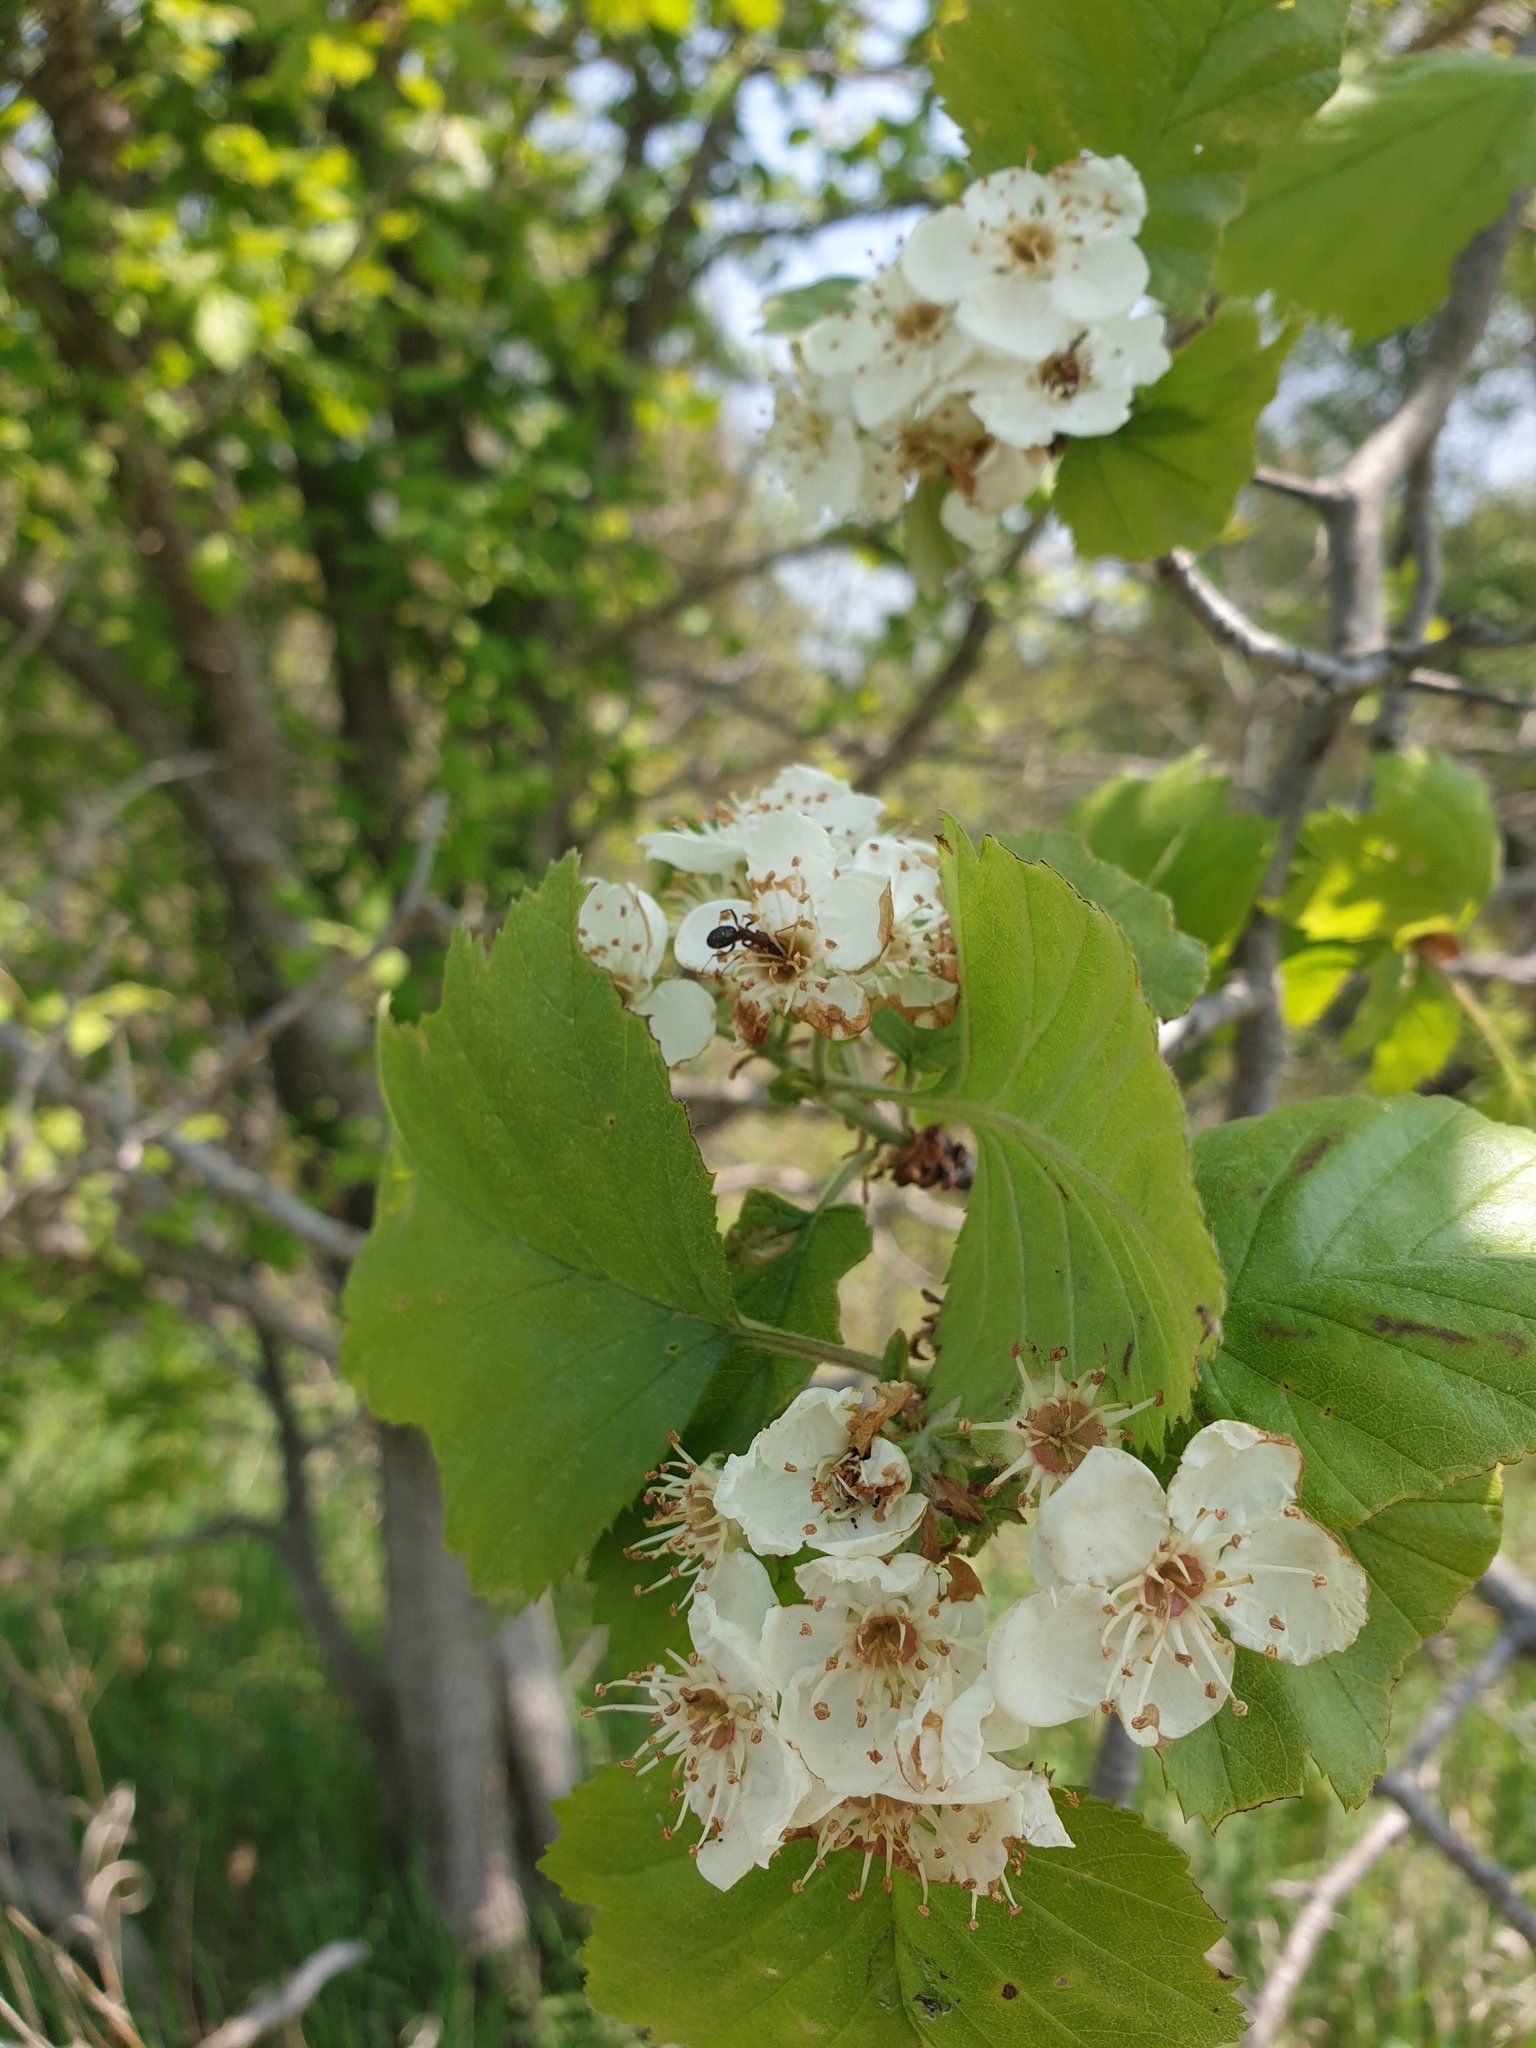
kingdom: Plantae
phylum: Tracheophyta
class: Magnoliopsida
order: Rosales
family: Rosaceae
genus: Crataegus
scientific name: Crataegus mollis
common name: Downy hawthorn
